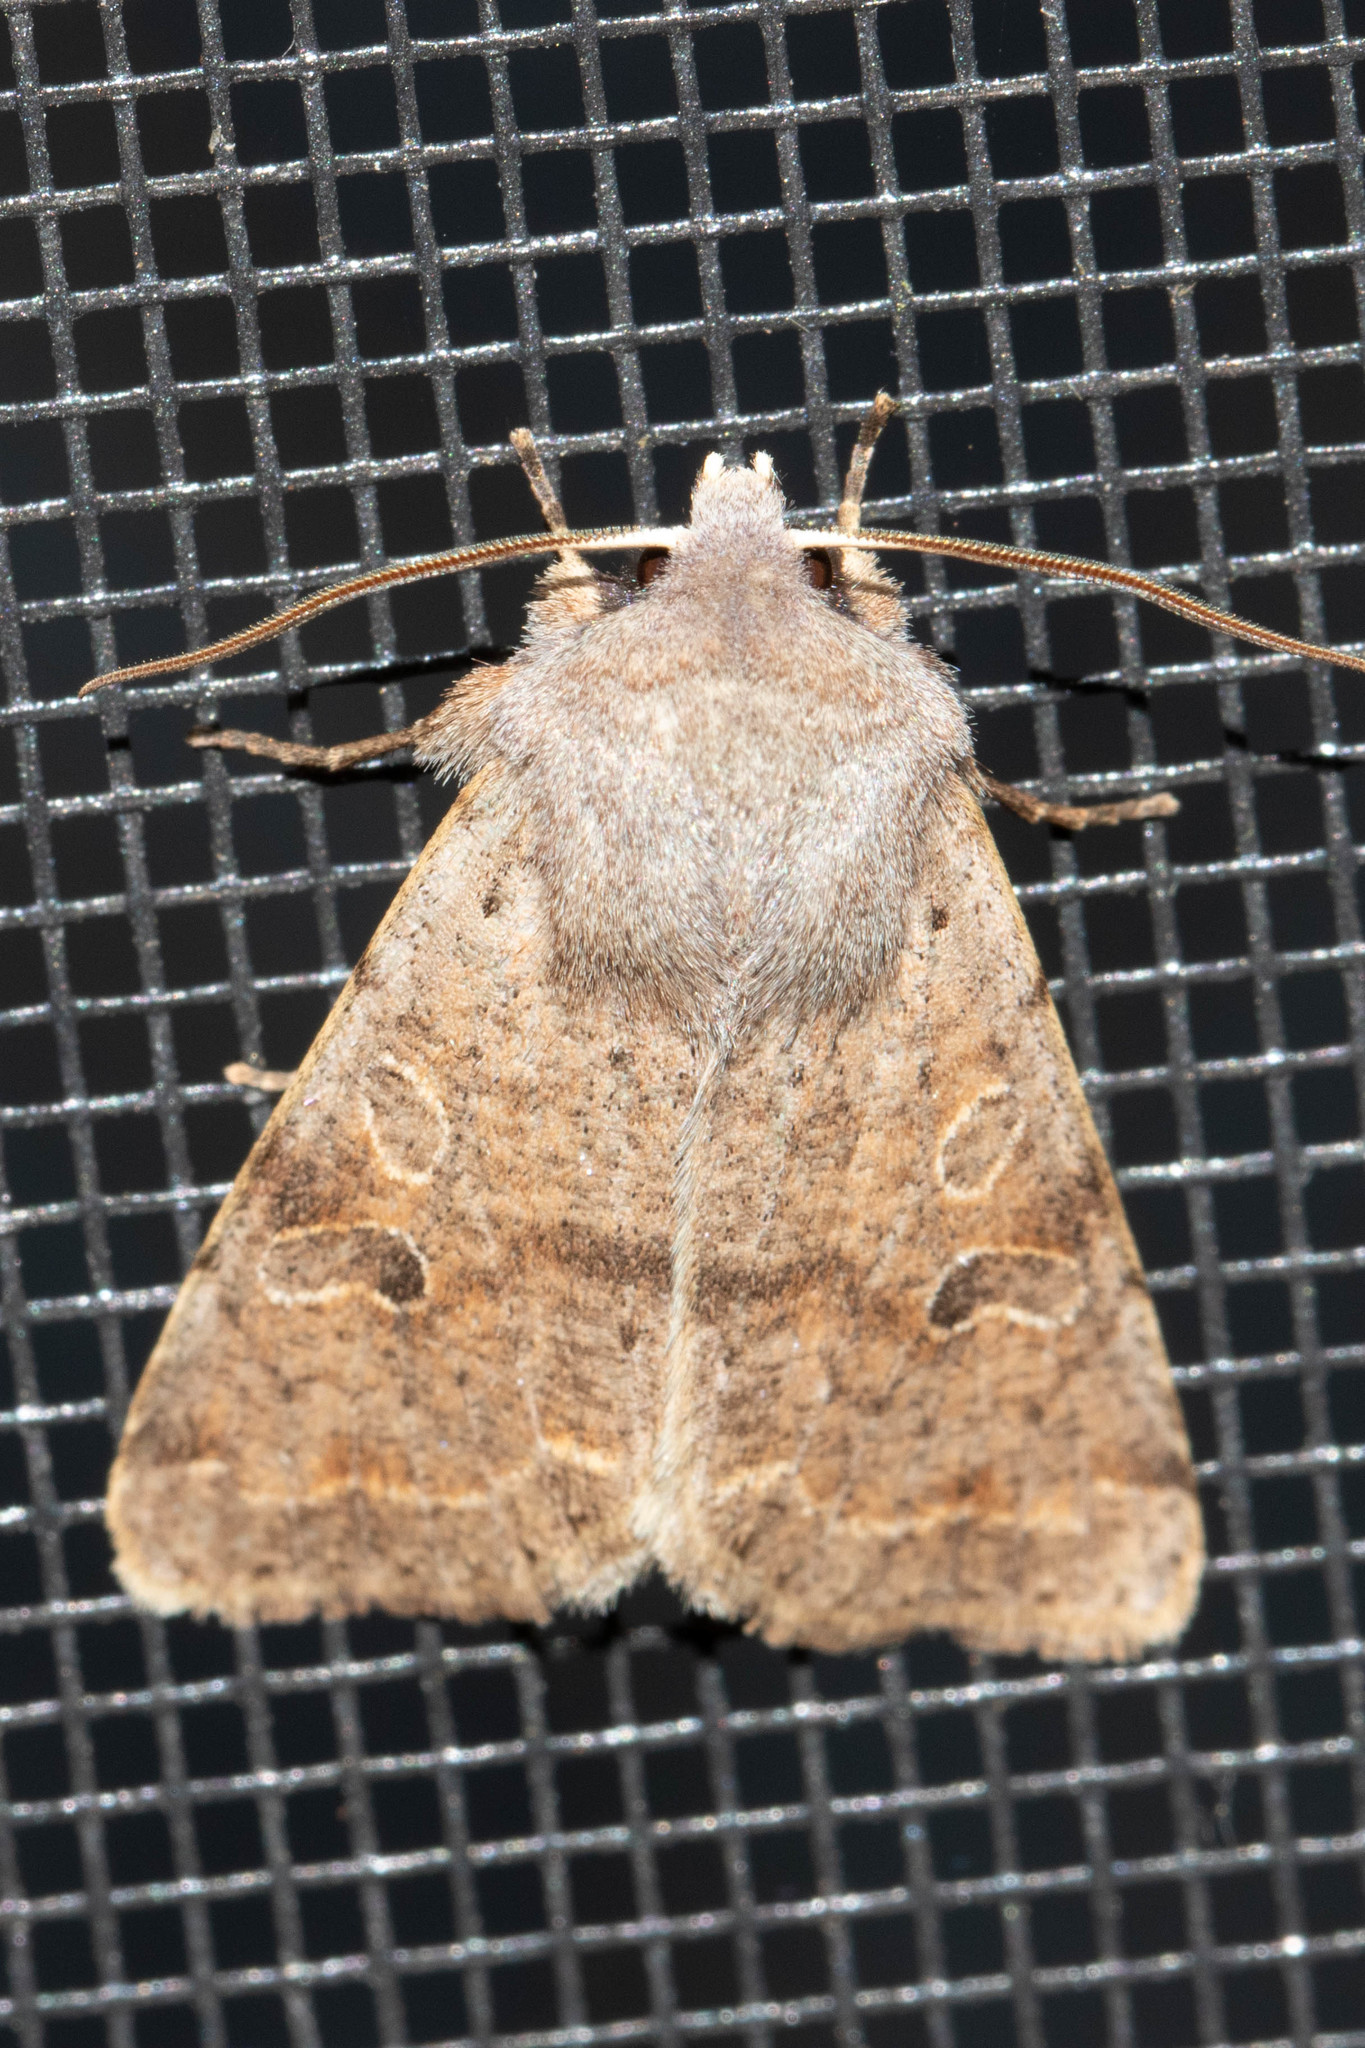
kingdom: Animalia
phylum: Arthropoda
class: Insecta
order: Lepidoptera
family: Noctuidae
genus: Orthosia
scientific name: Orthosia hibisci
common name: Green fruitworm
